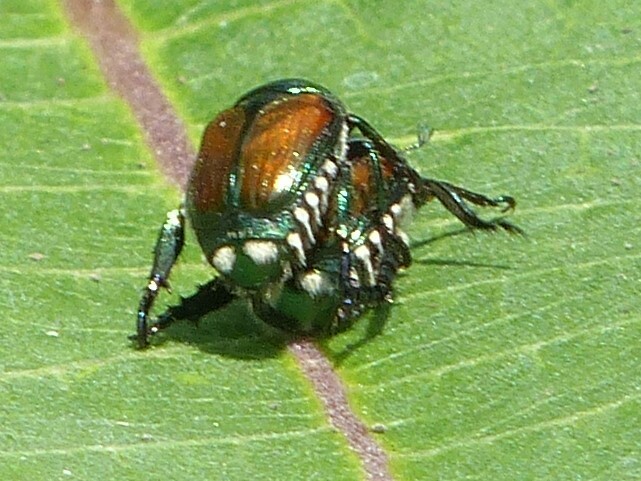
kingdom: Animalia
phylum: Arthropoda
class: Insecta
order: Coleoptera
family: Scarabaeidae
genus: Popillia
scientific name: Popillia japonica
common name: Japanese beetle
